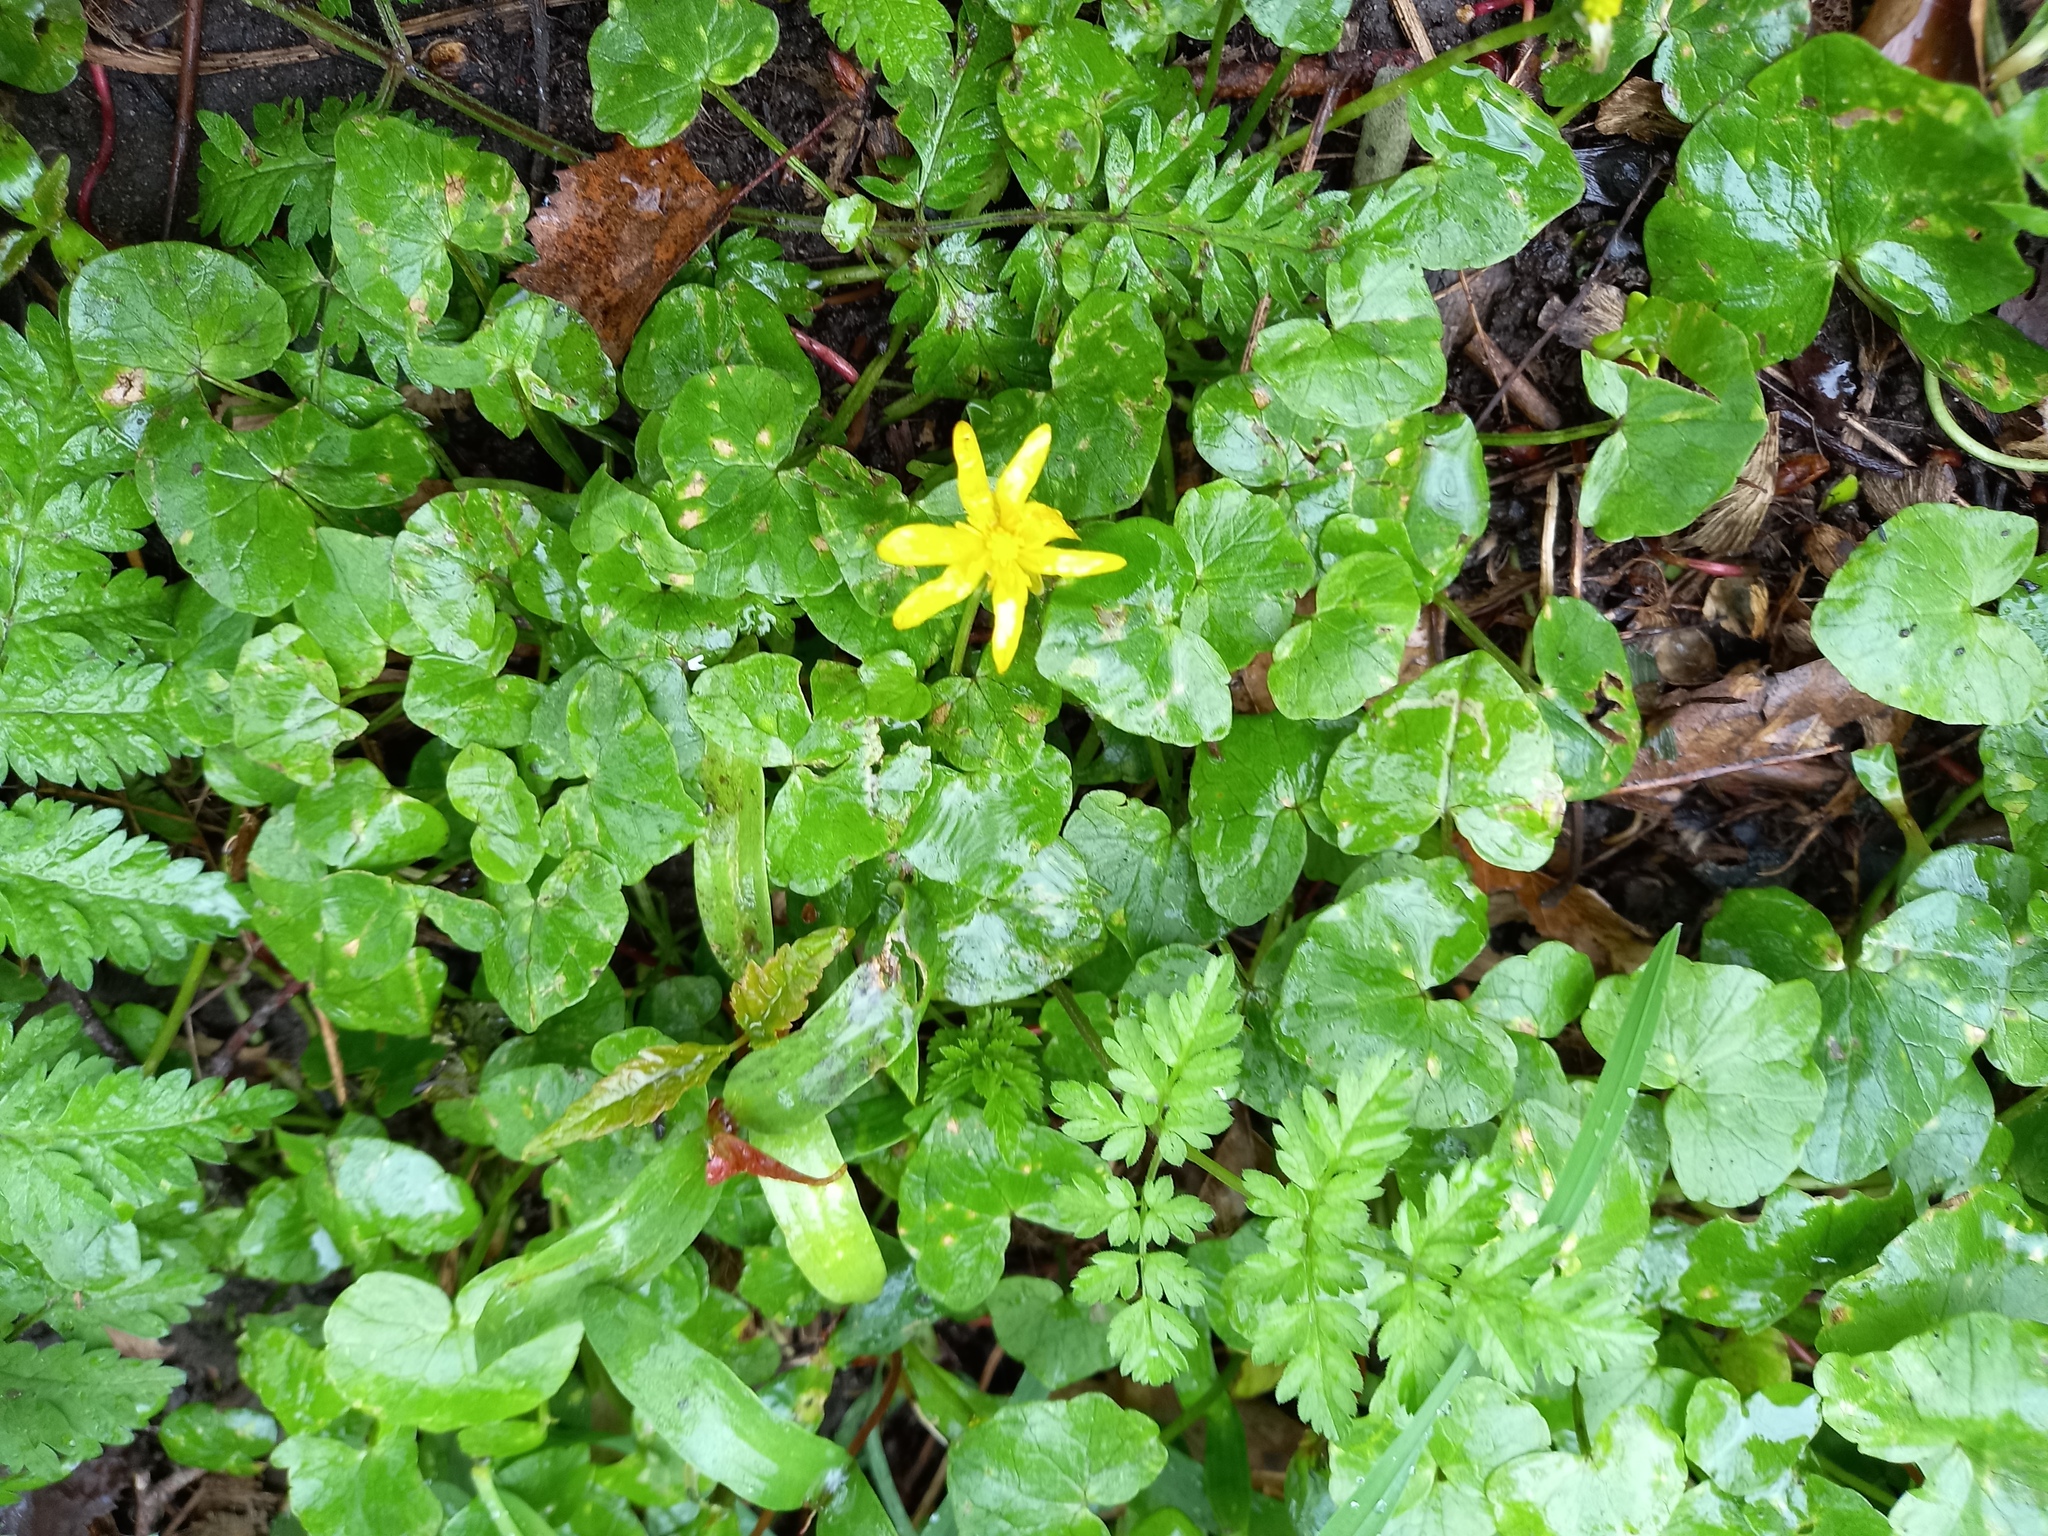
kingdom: Plantae
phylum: Tracheophyta
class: Magnoliopsida
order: Ranunculales
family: Ranunculaceae
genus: Ficaria
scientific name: Ficaria verna
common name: Lesser celandine
